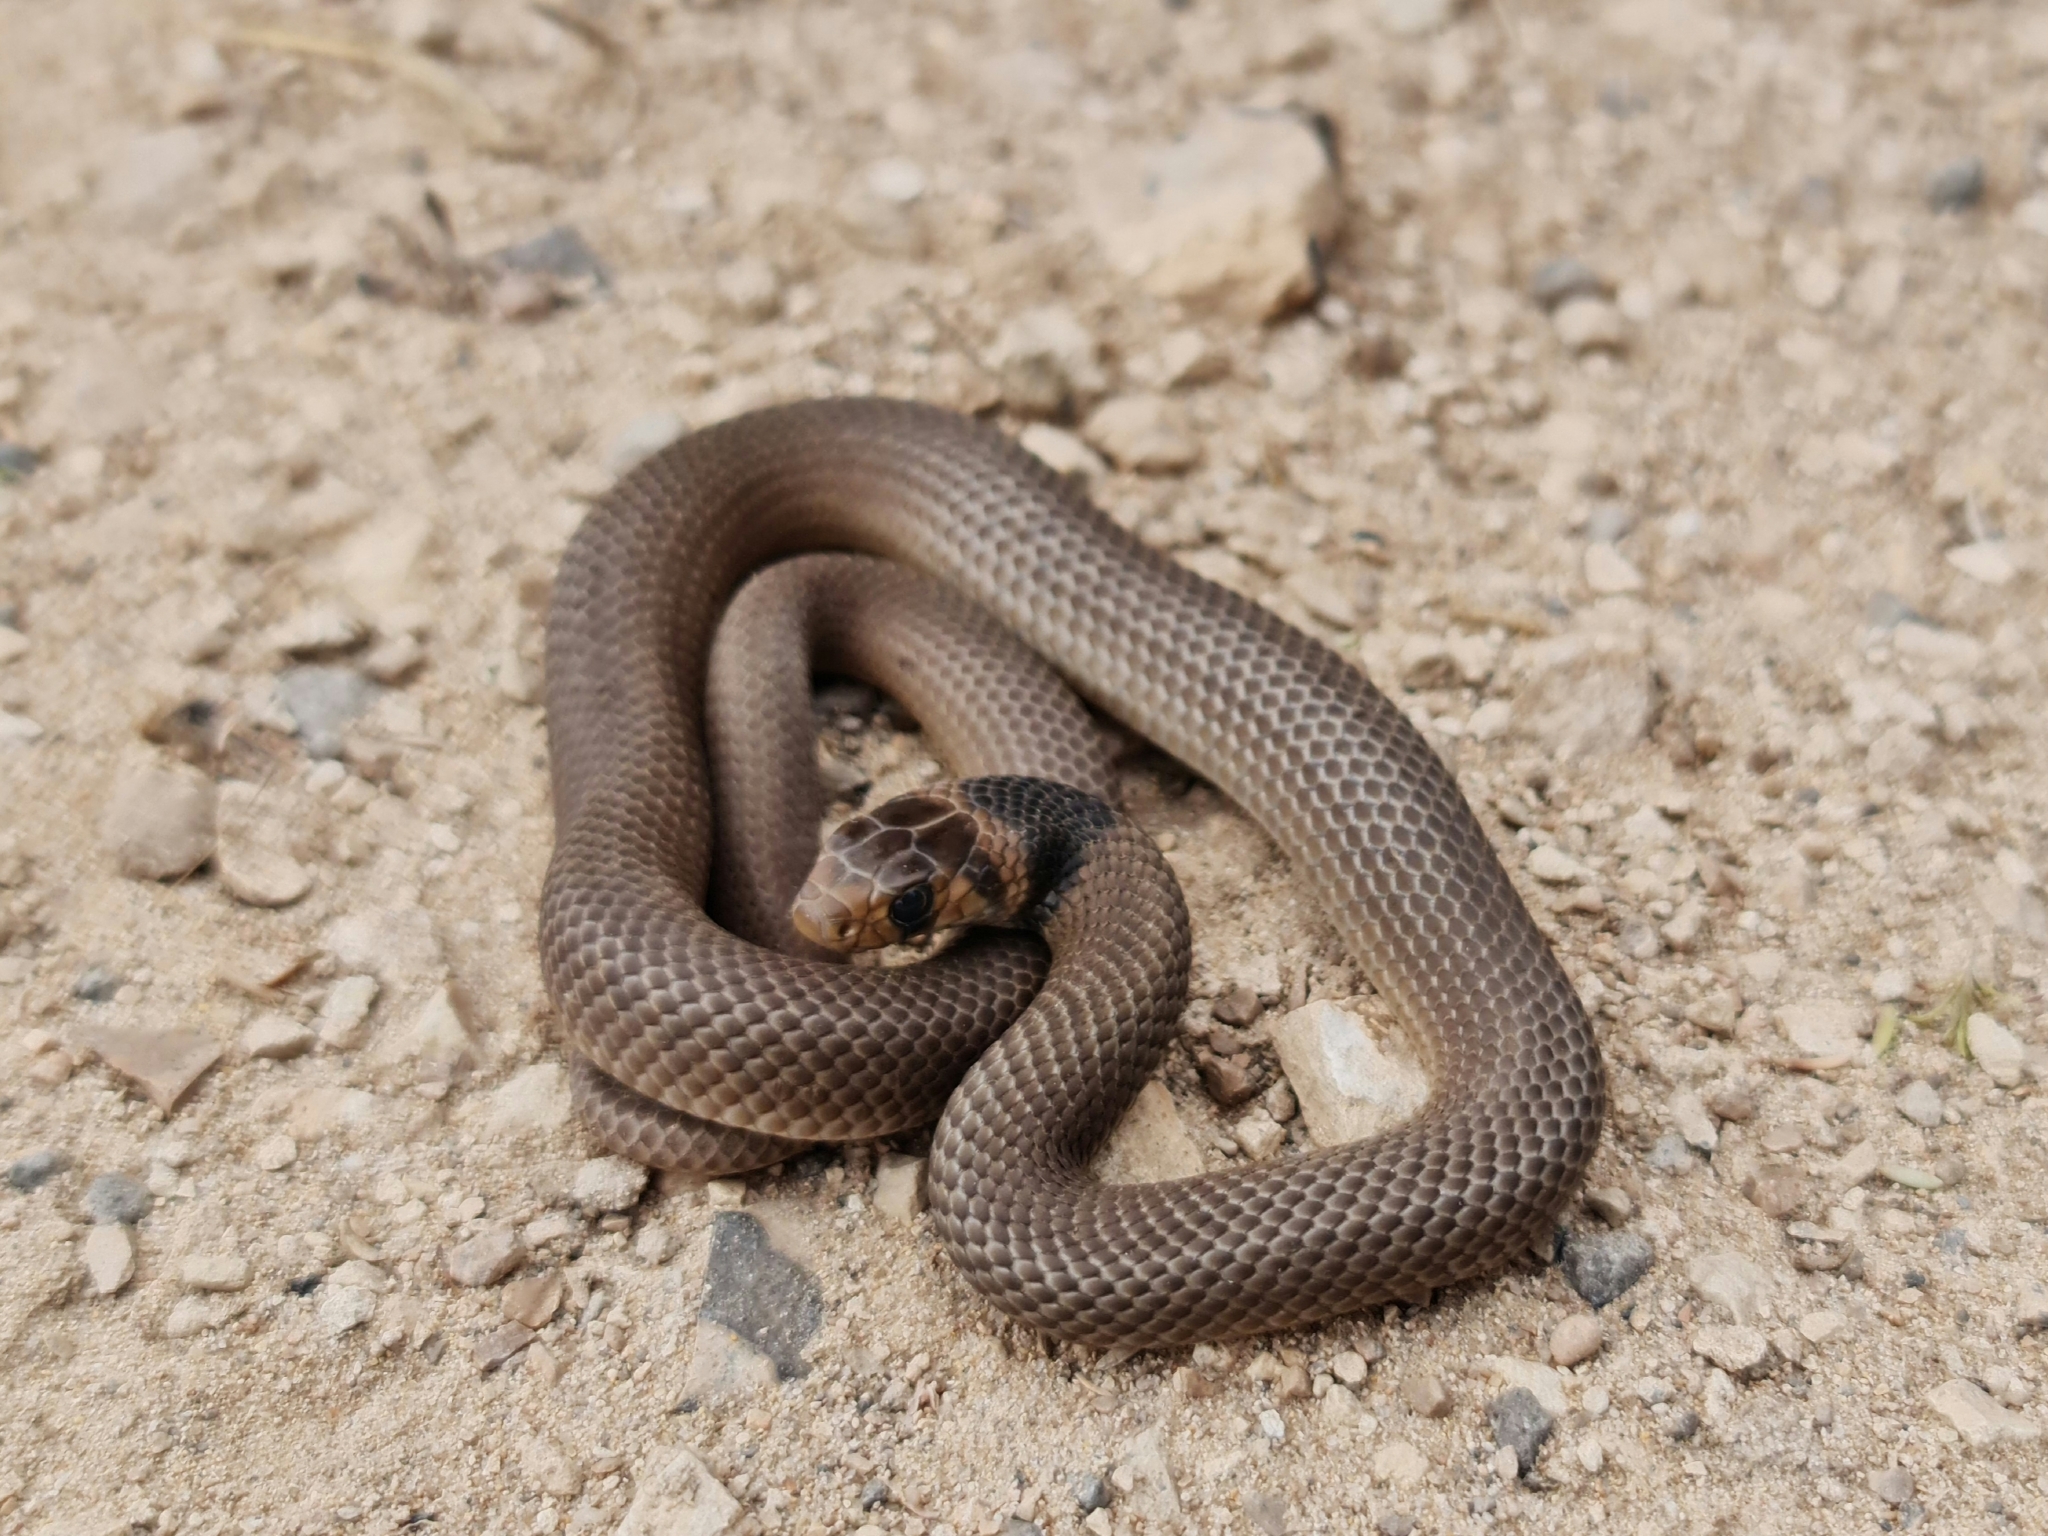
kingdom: Animalia
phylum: Chordata
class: Squamata
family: Elapidae
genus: Pseudonaja
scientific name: Pseudonaja inframacula
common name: Peninsula brown snake
